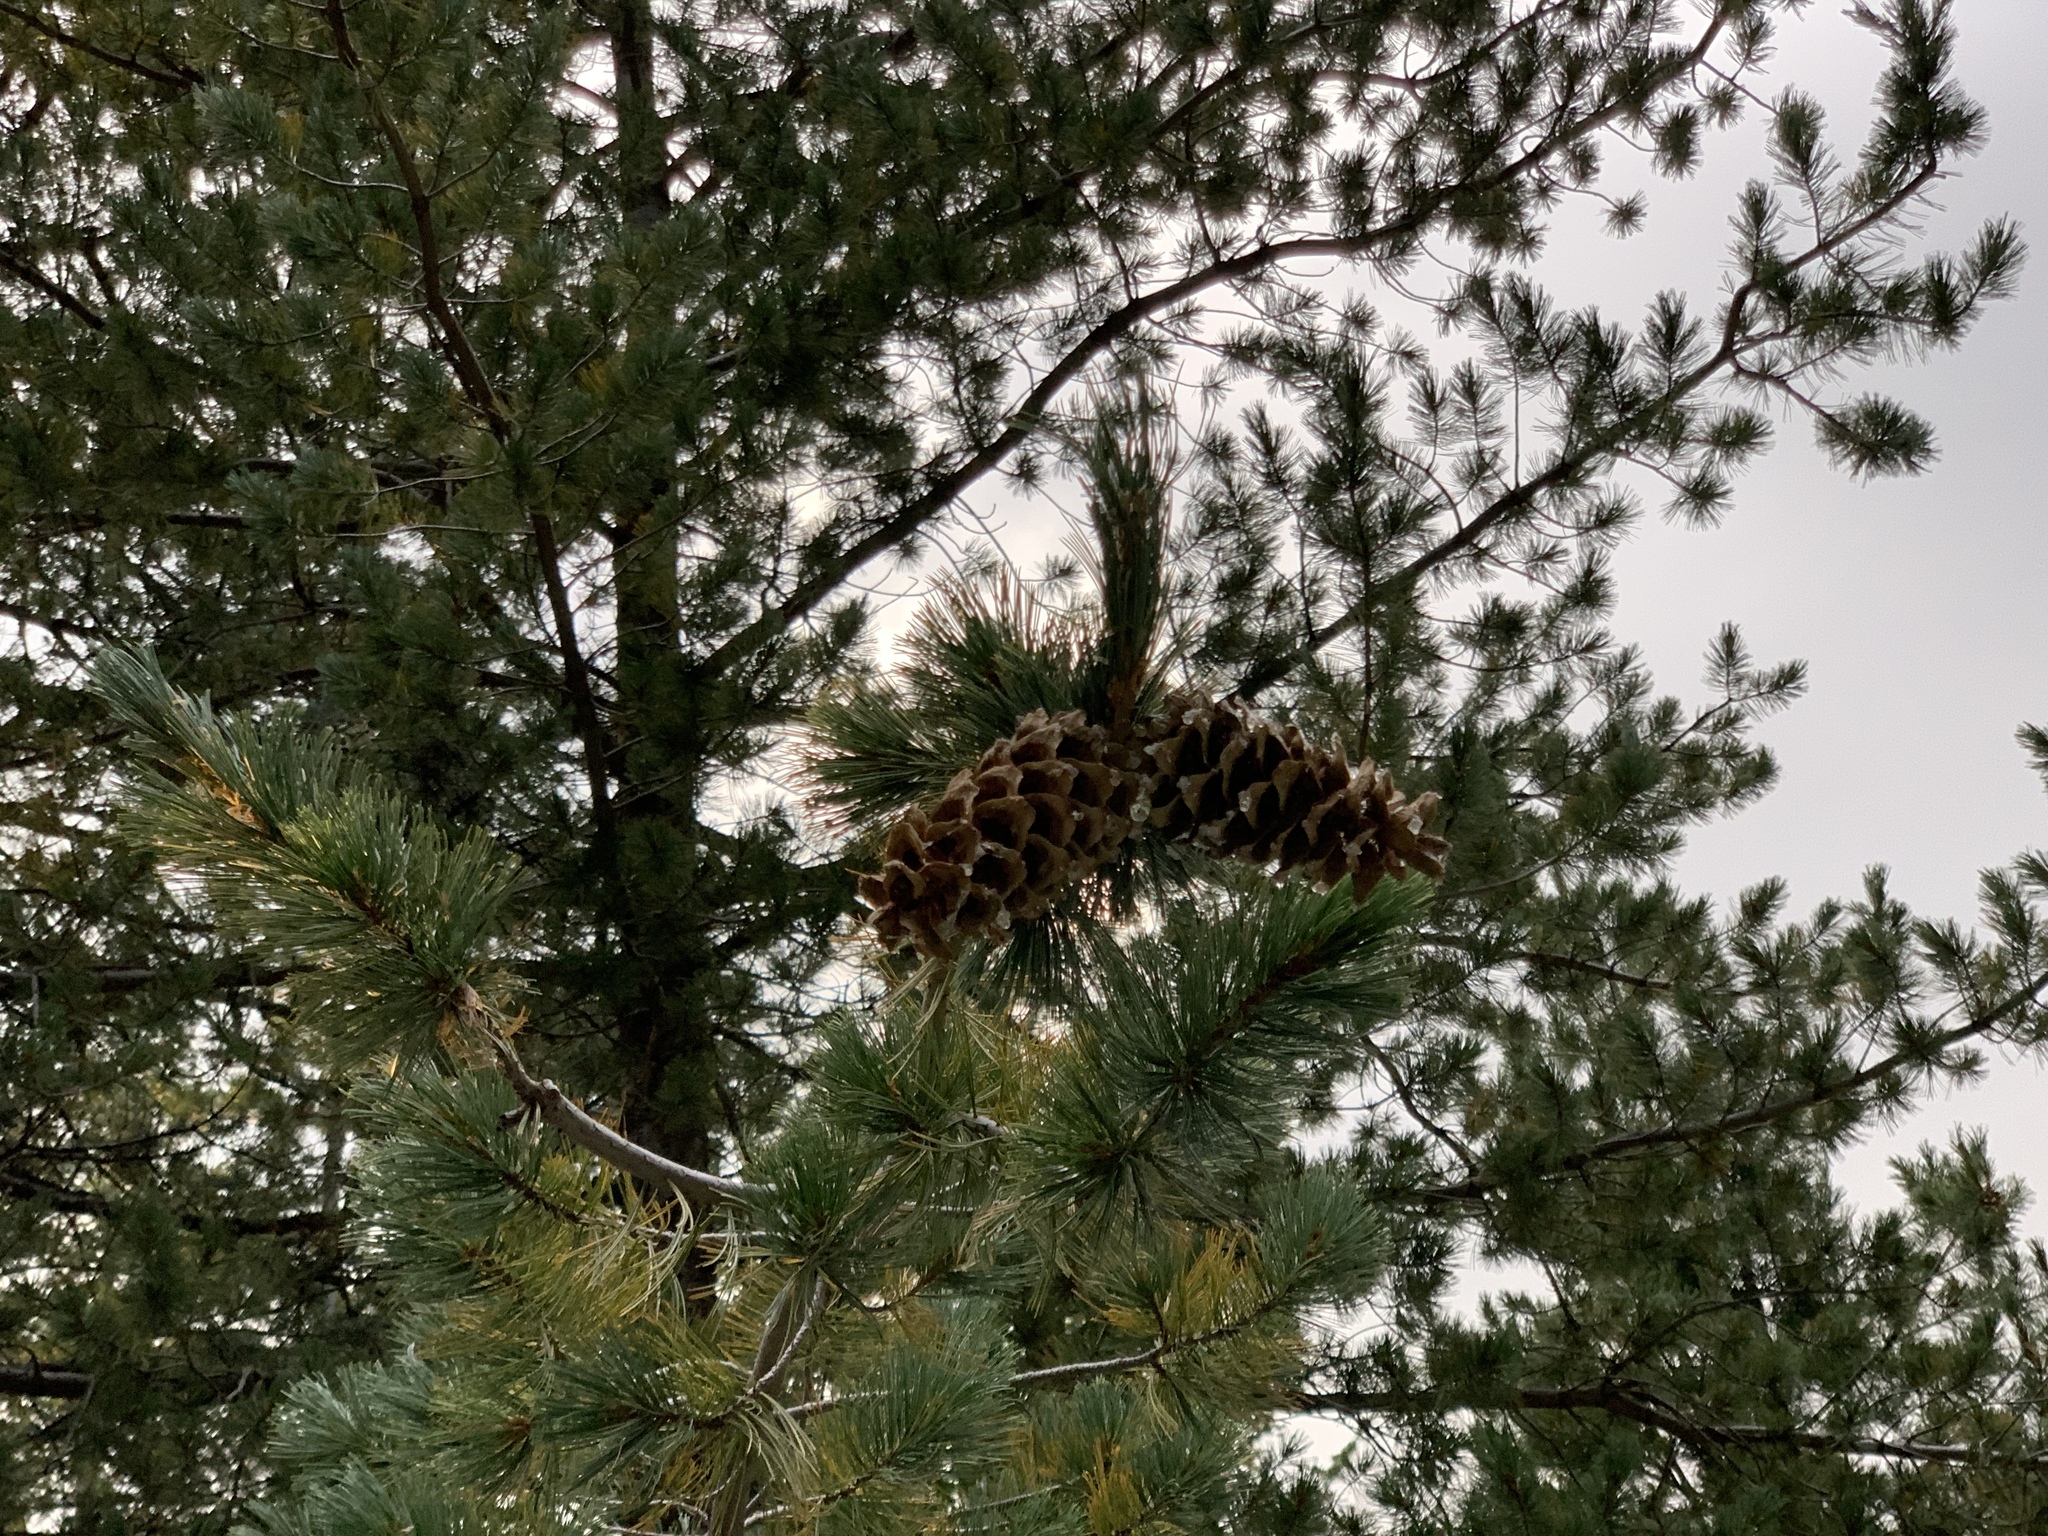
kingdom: Plantae
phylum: Tracheophyta
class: Pinopsida
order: Pinales
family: Pinaceae
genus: Pinus
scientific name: Pinus strobiformis
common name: Southwestern white pine
